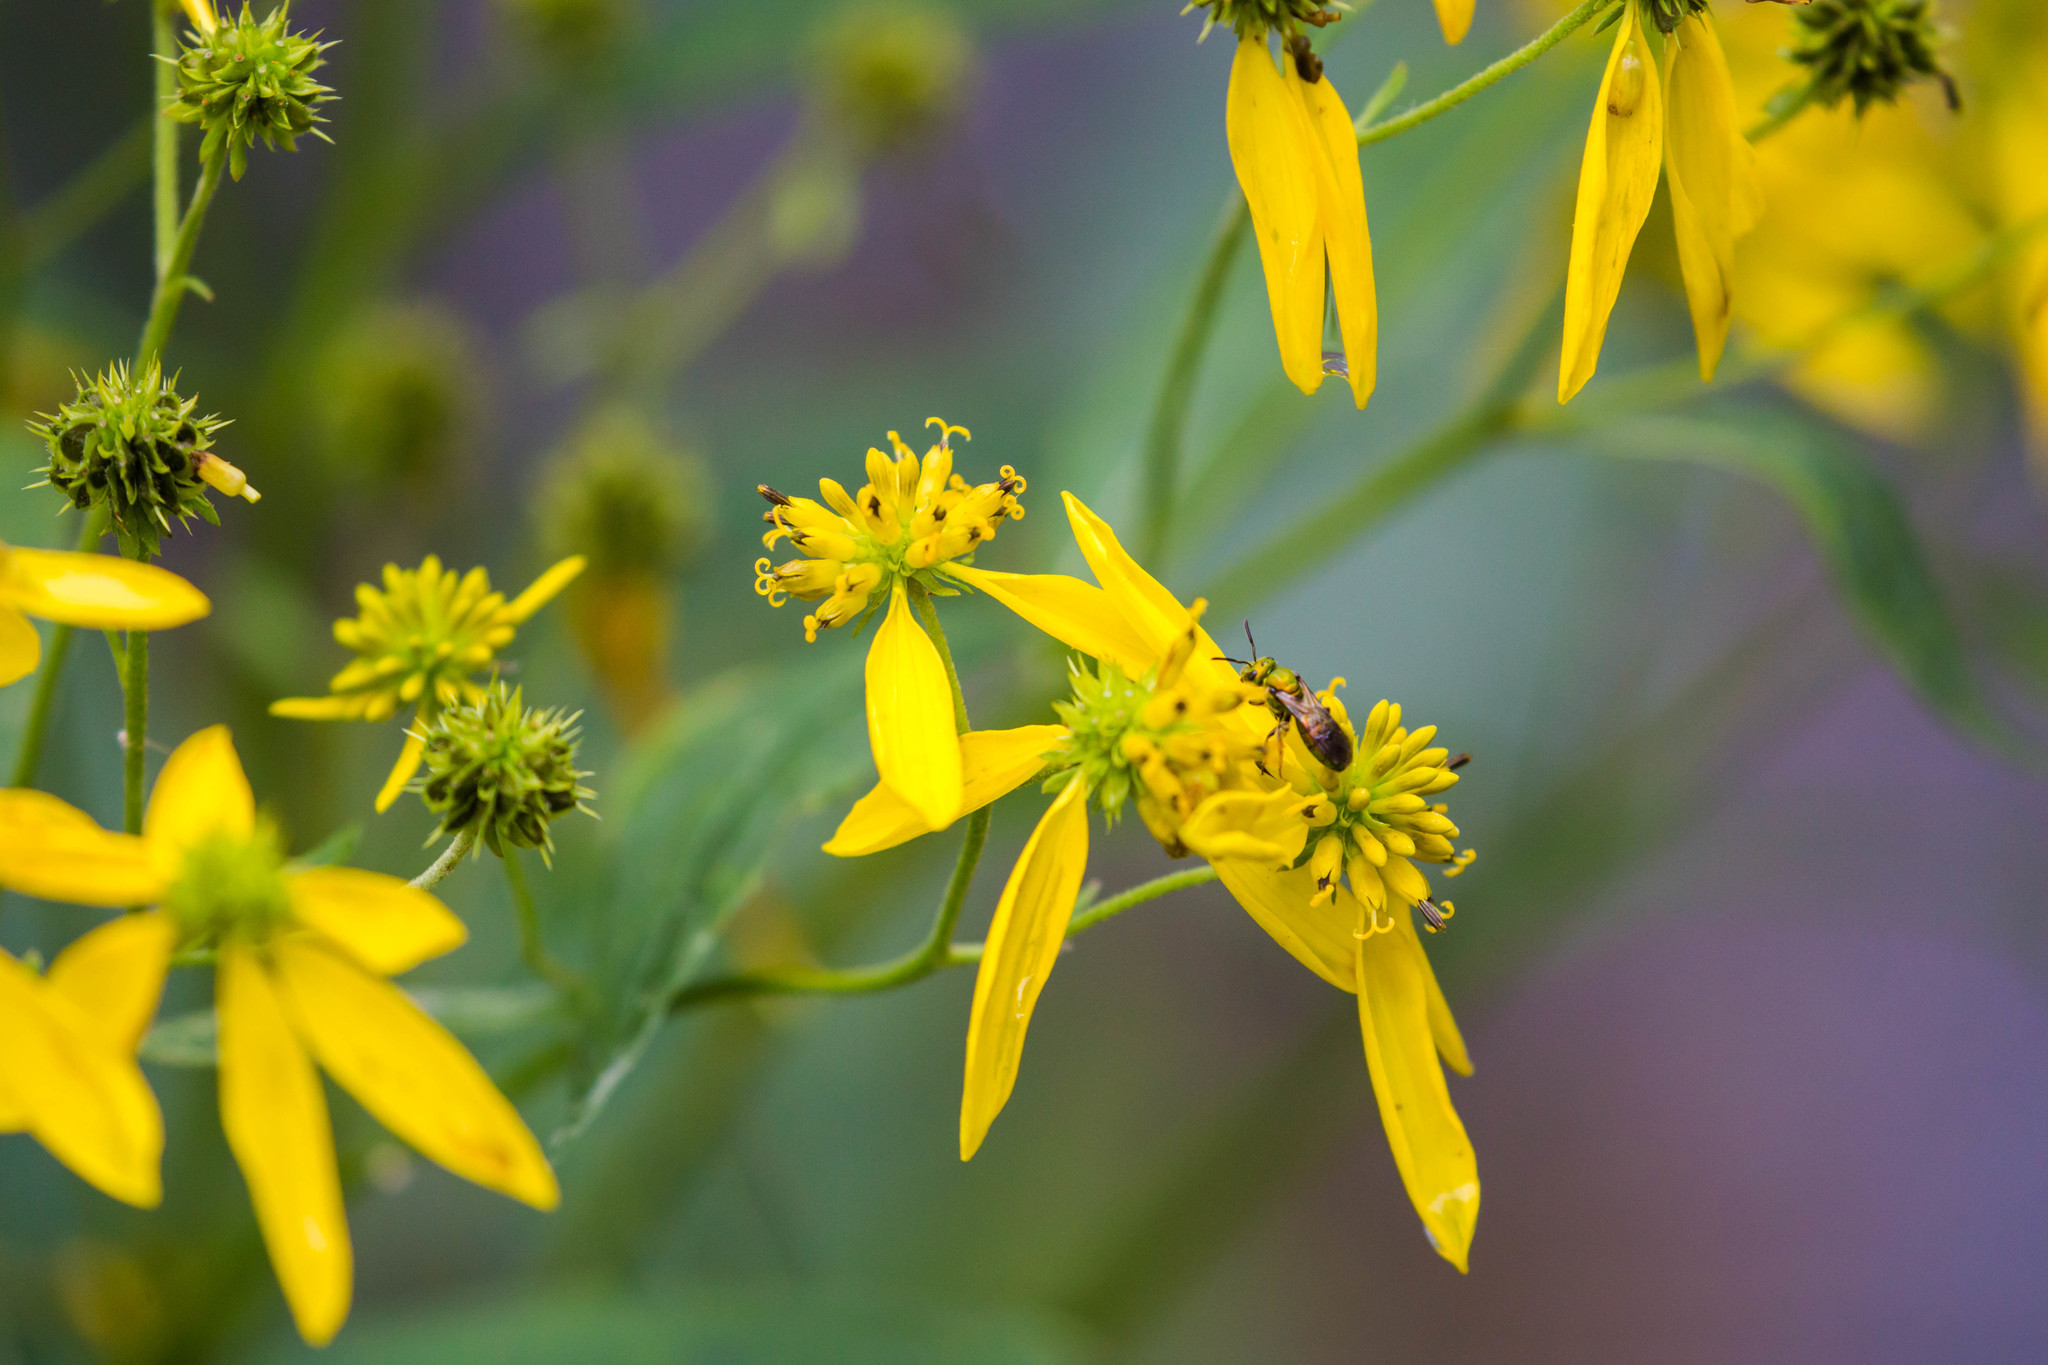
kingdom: Plantae
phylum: Tracheophyta
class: Magnoliopsida
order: Asterales
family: Asteraceae
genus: Verbesina
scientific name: Verbesina alternifolia
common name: Wingstem
